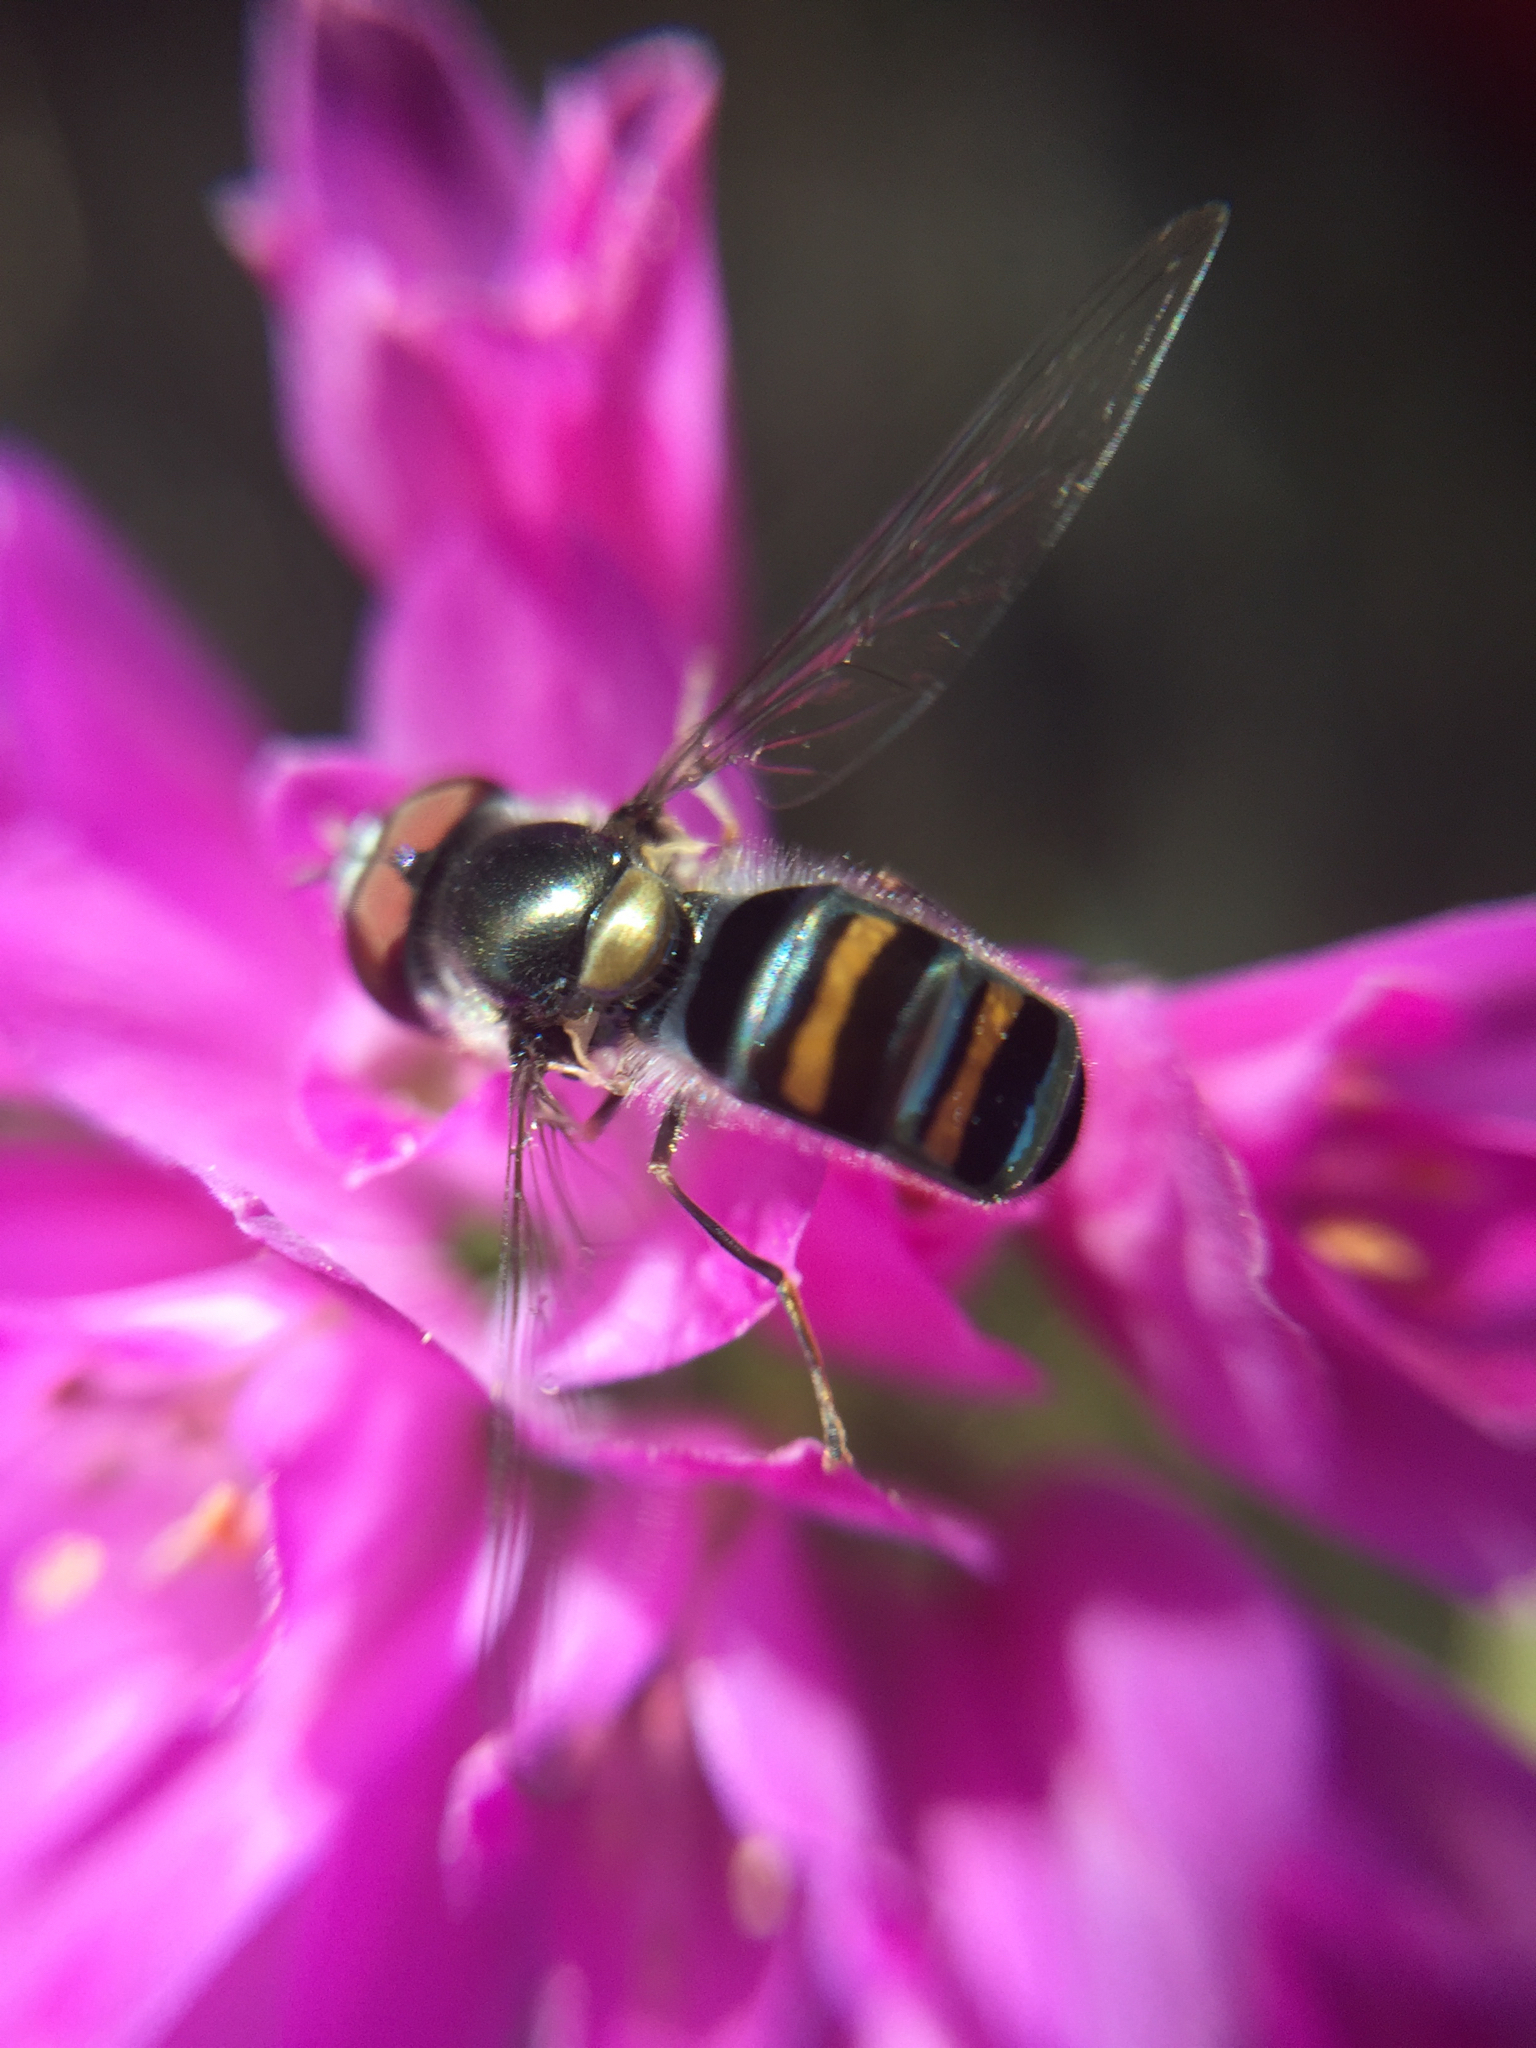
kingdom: Animalia
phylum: Arthropoda
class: Insecta
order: Diptera
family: Syrphidae
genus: Pseudoscaeva
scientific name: Pseudoscaeva diversifasciata
